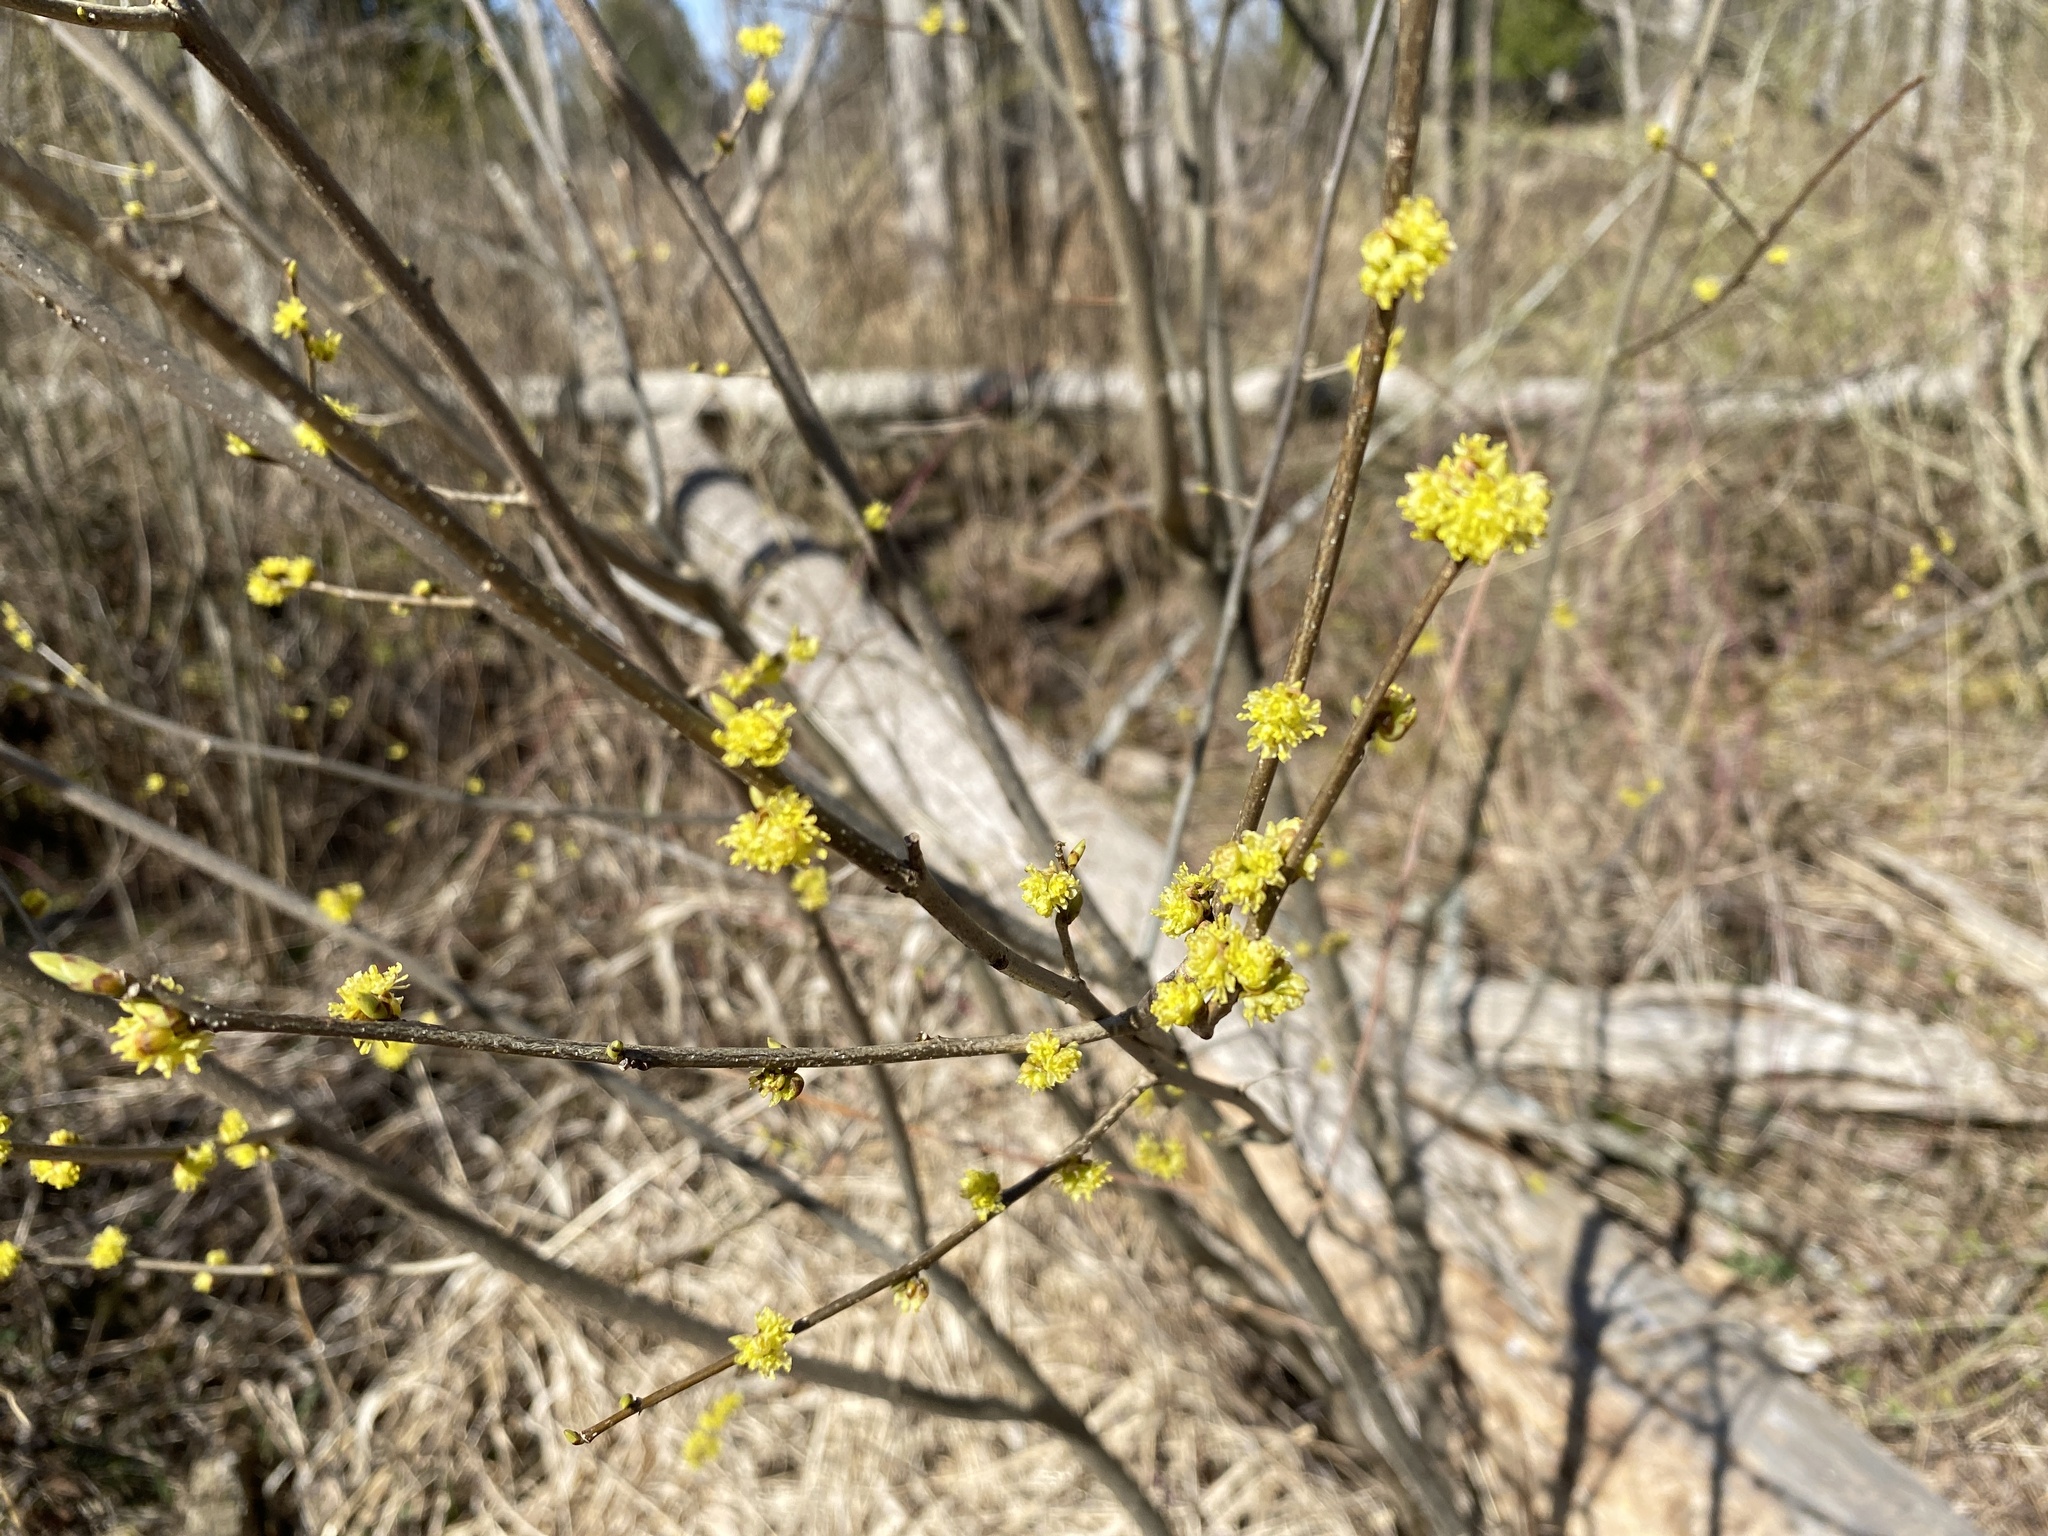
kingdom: Plantae
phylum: Tracheophyta
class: Magnoliopsida
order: Laurales
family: Lauraceae
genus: Lindera
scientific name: Lindera benzoin
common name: Spicebush
